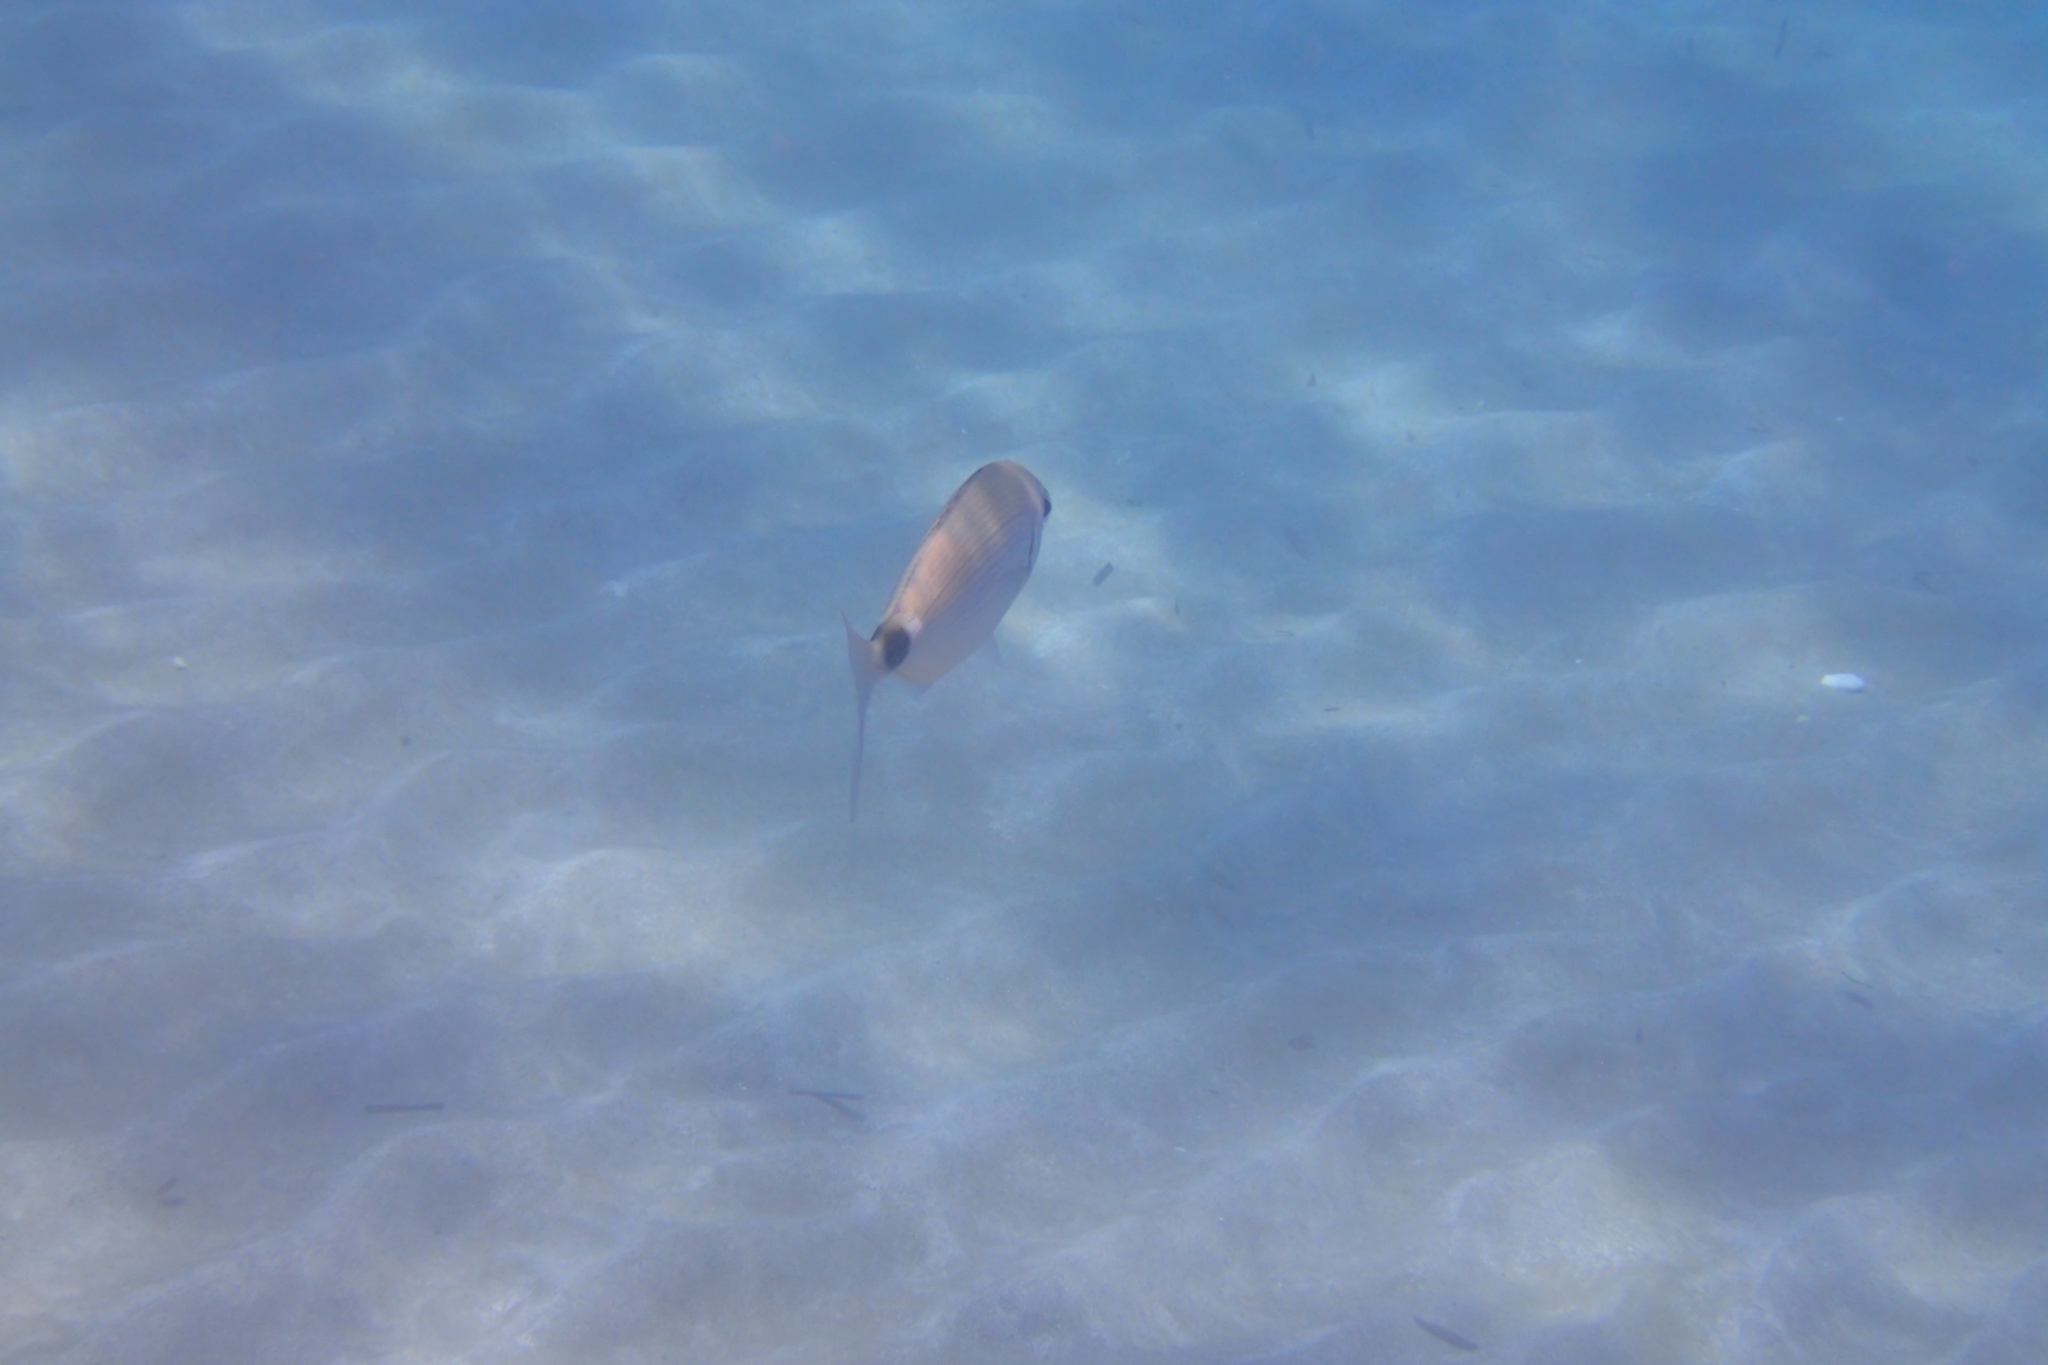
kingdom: Animalia
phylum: Chordata
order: Perciformes
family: Sparidae
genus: Oblada
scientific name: Oblada melanura
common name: Saddled seabream
